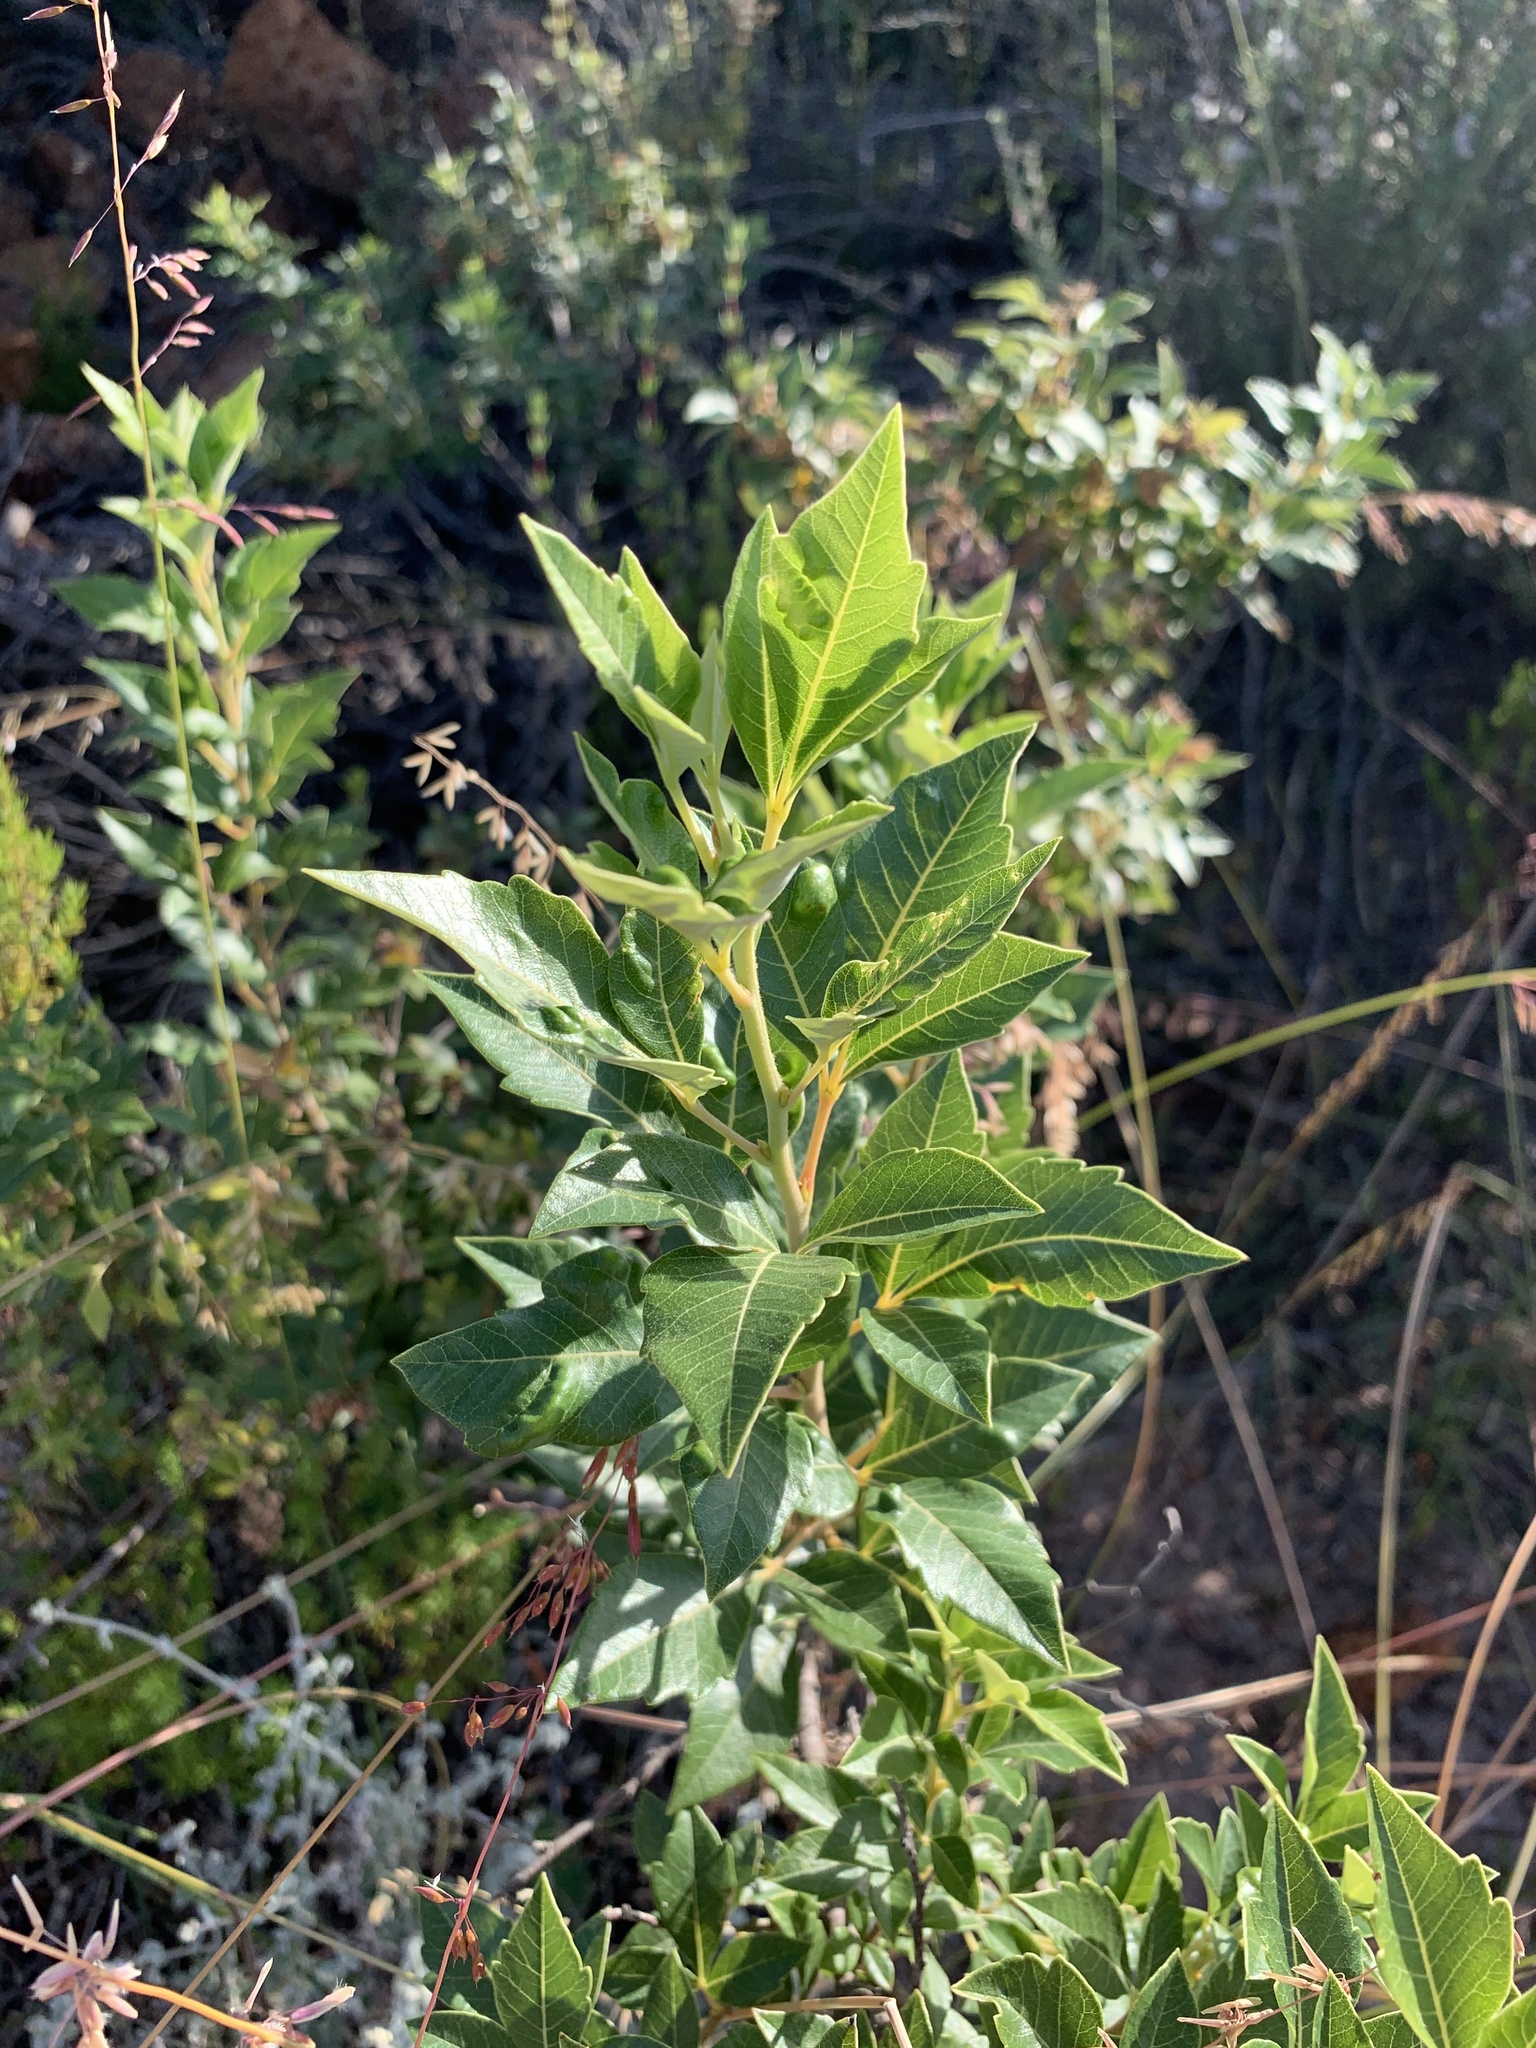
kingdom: Plantae
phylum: Tracheophyta
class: Magnoliopsida
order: Sapindales
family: Anacardiaceae
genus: Searsia
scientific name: Searsia tomentosa
